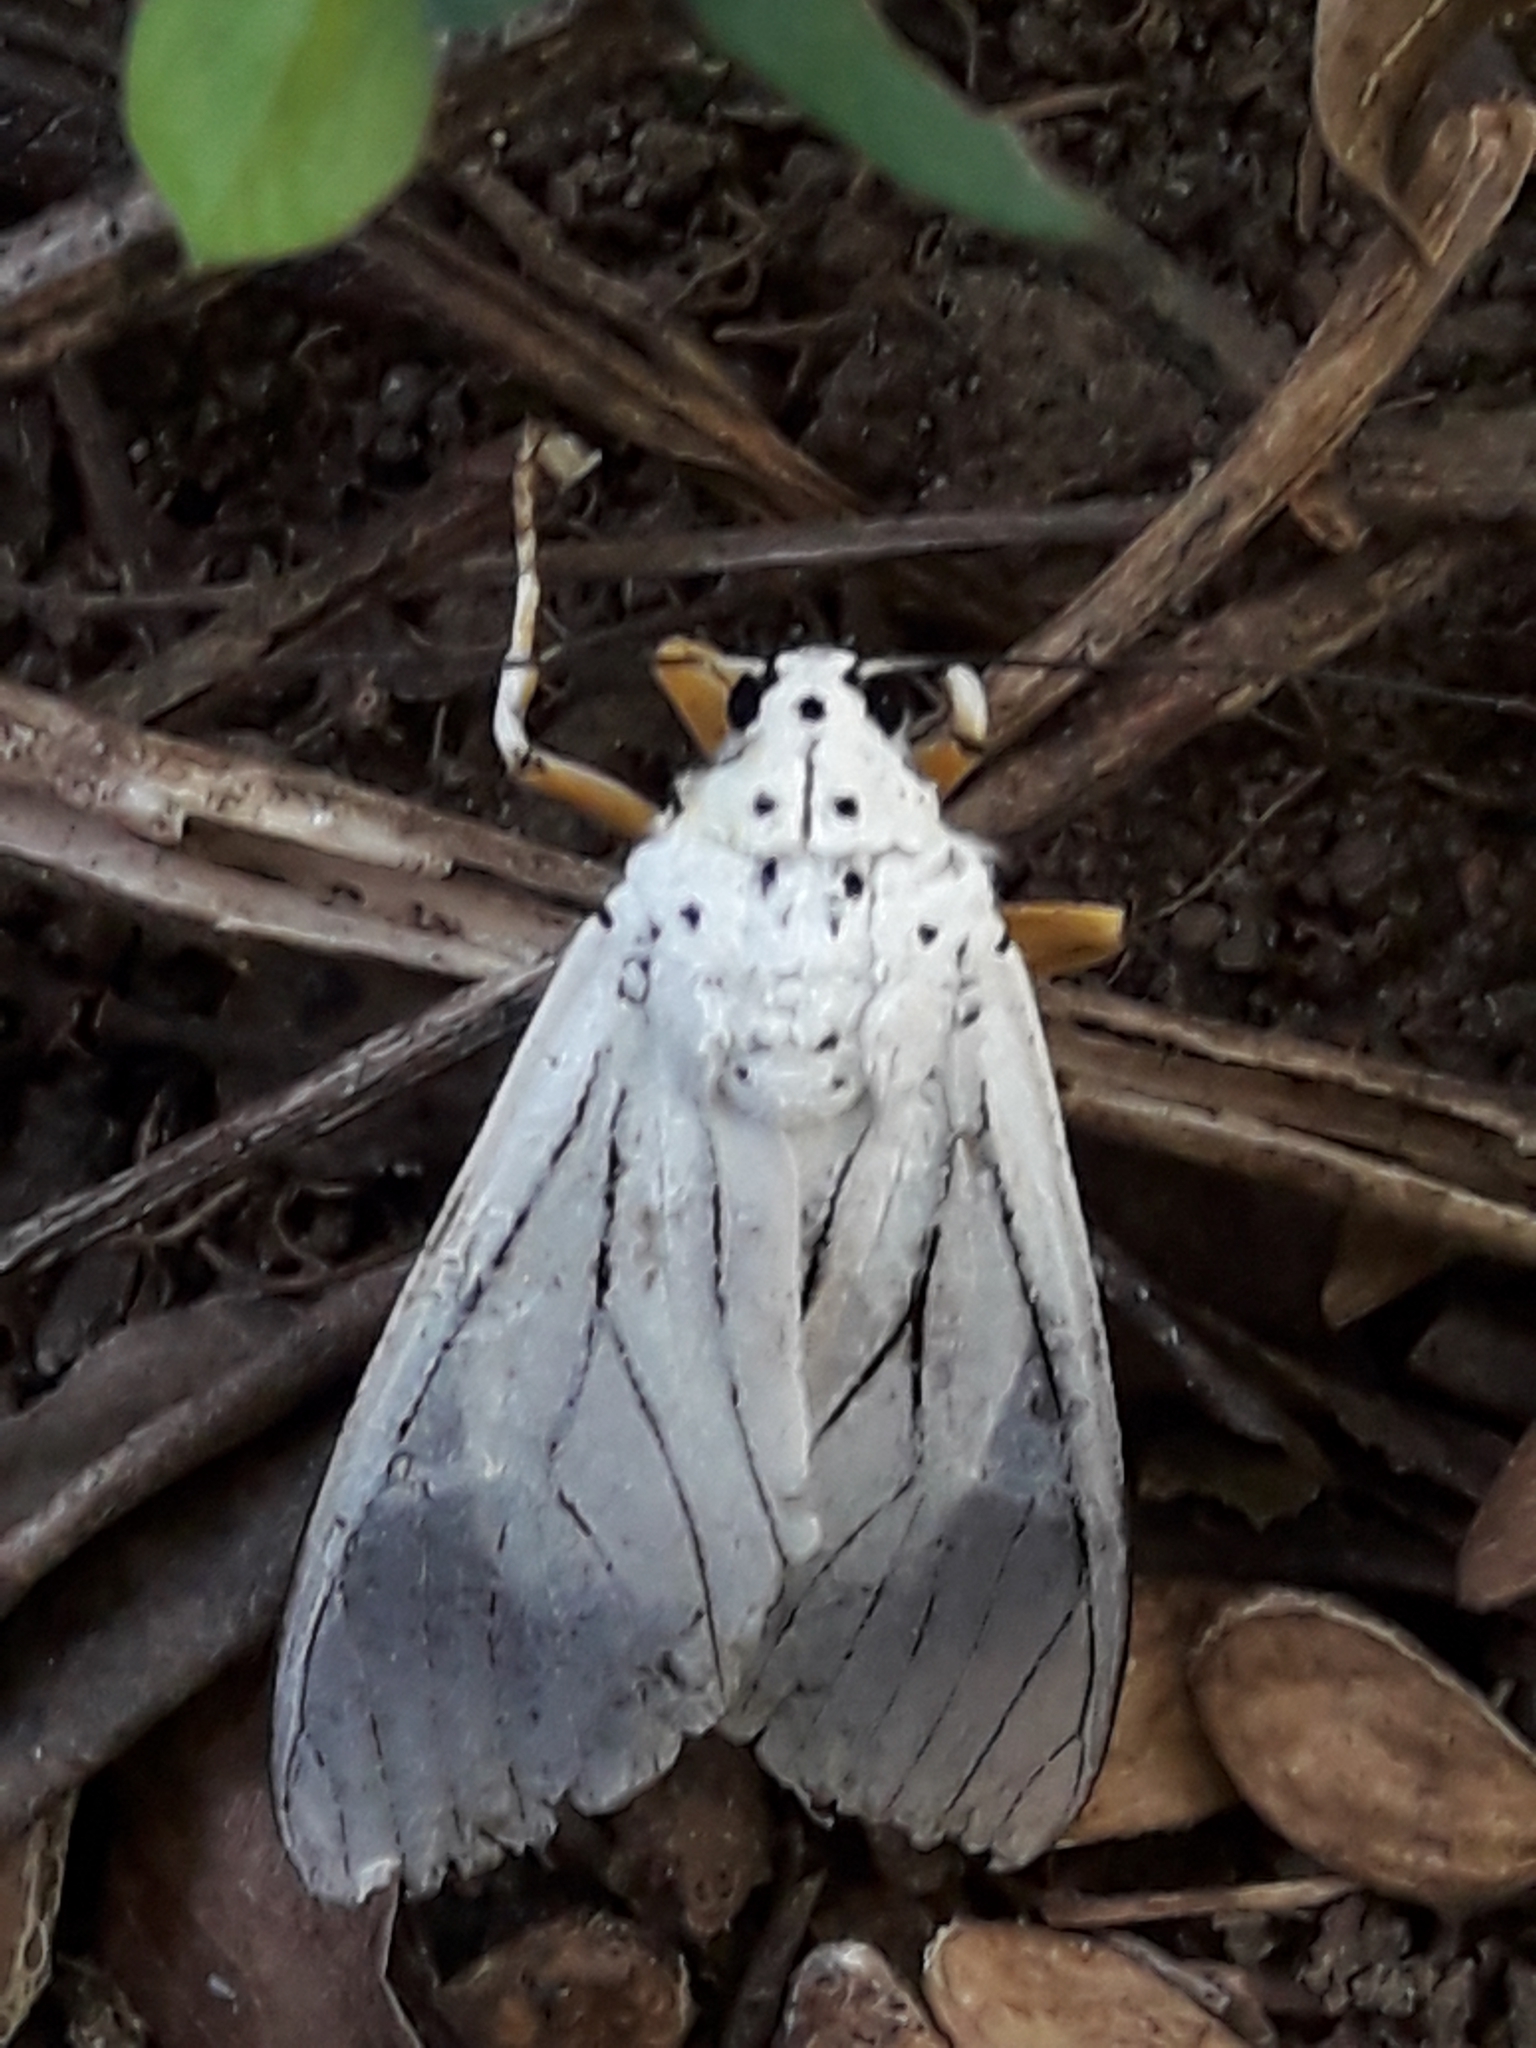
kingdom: Animalia
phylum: Arthropoda
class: Insecta
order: Lepidoptera
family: Erebidae
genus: Amerila
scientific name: Amerila bubo
